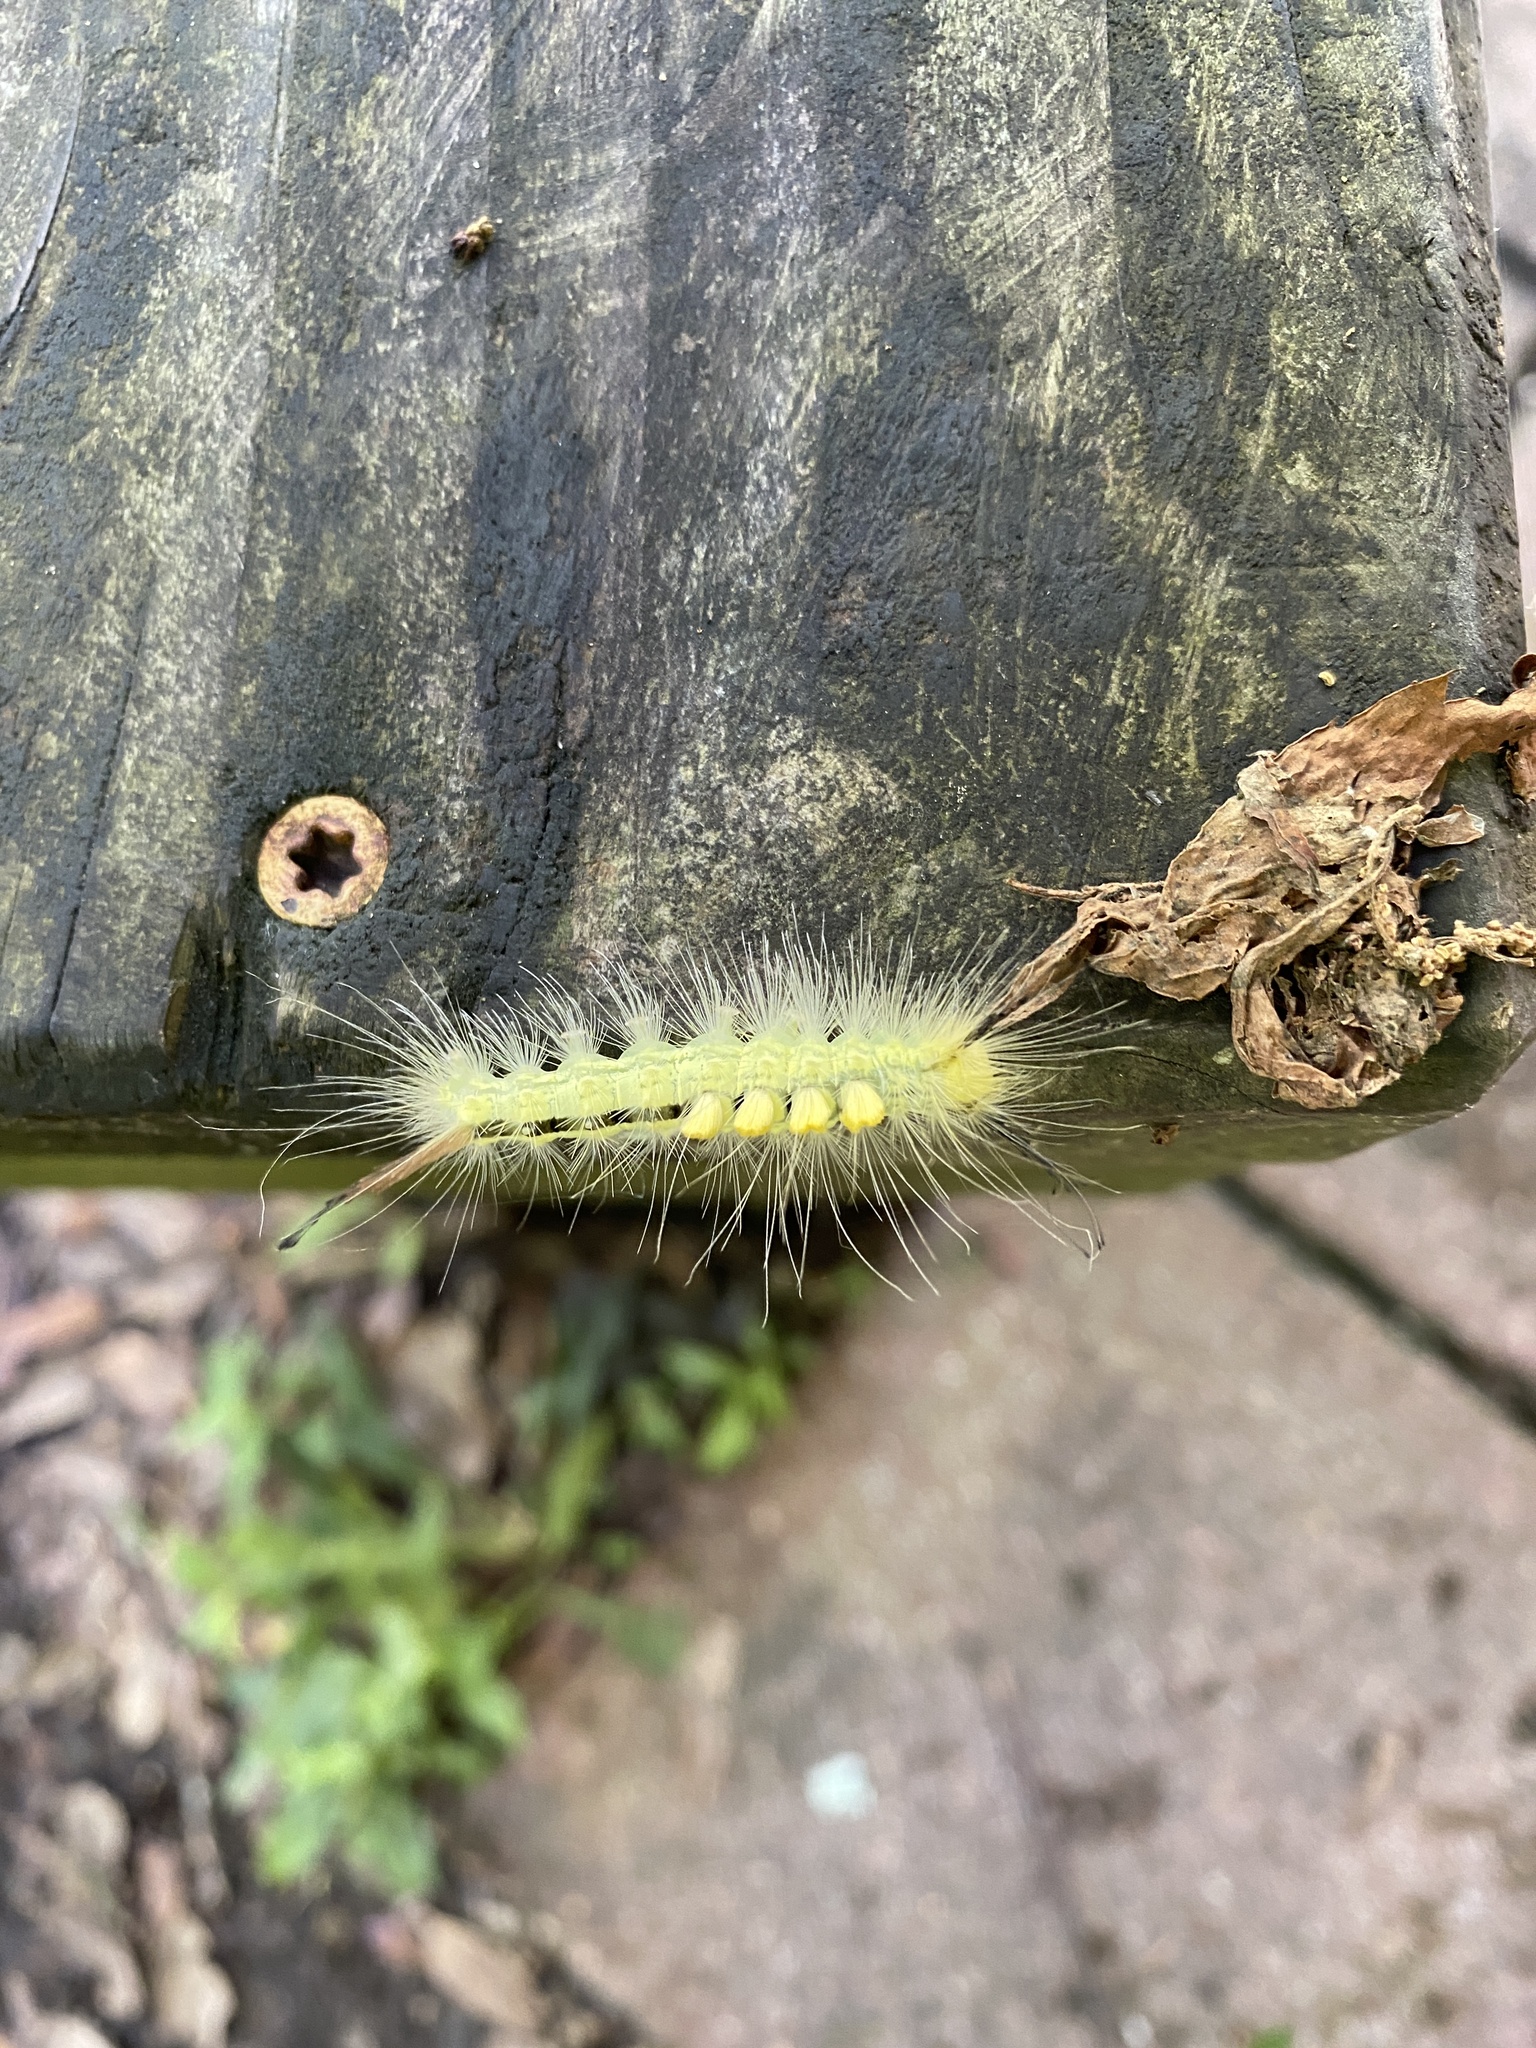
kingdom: Animalia
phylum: Arthropoda
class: Insecta
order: Lepidoptera
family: Erebidae
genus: Orgyia
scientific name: Orgyia definita
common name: Definite tussock moth
